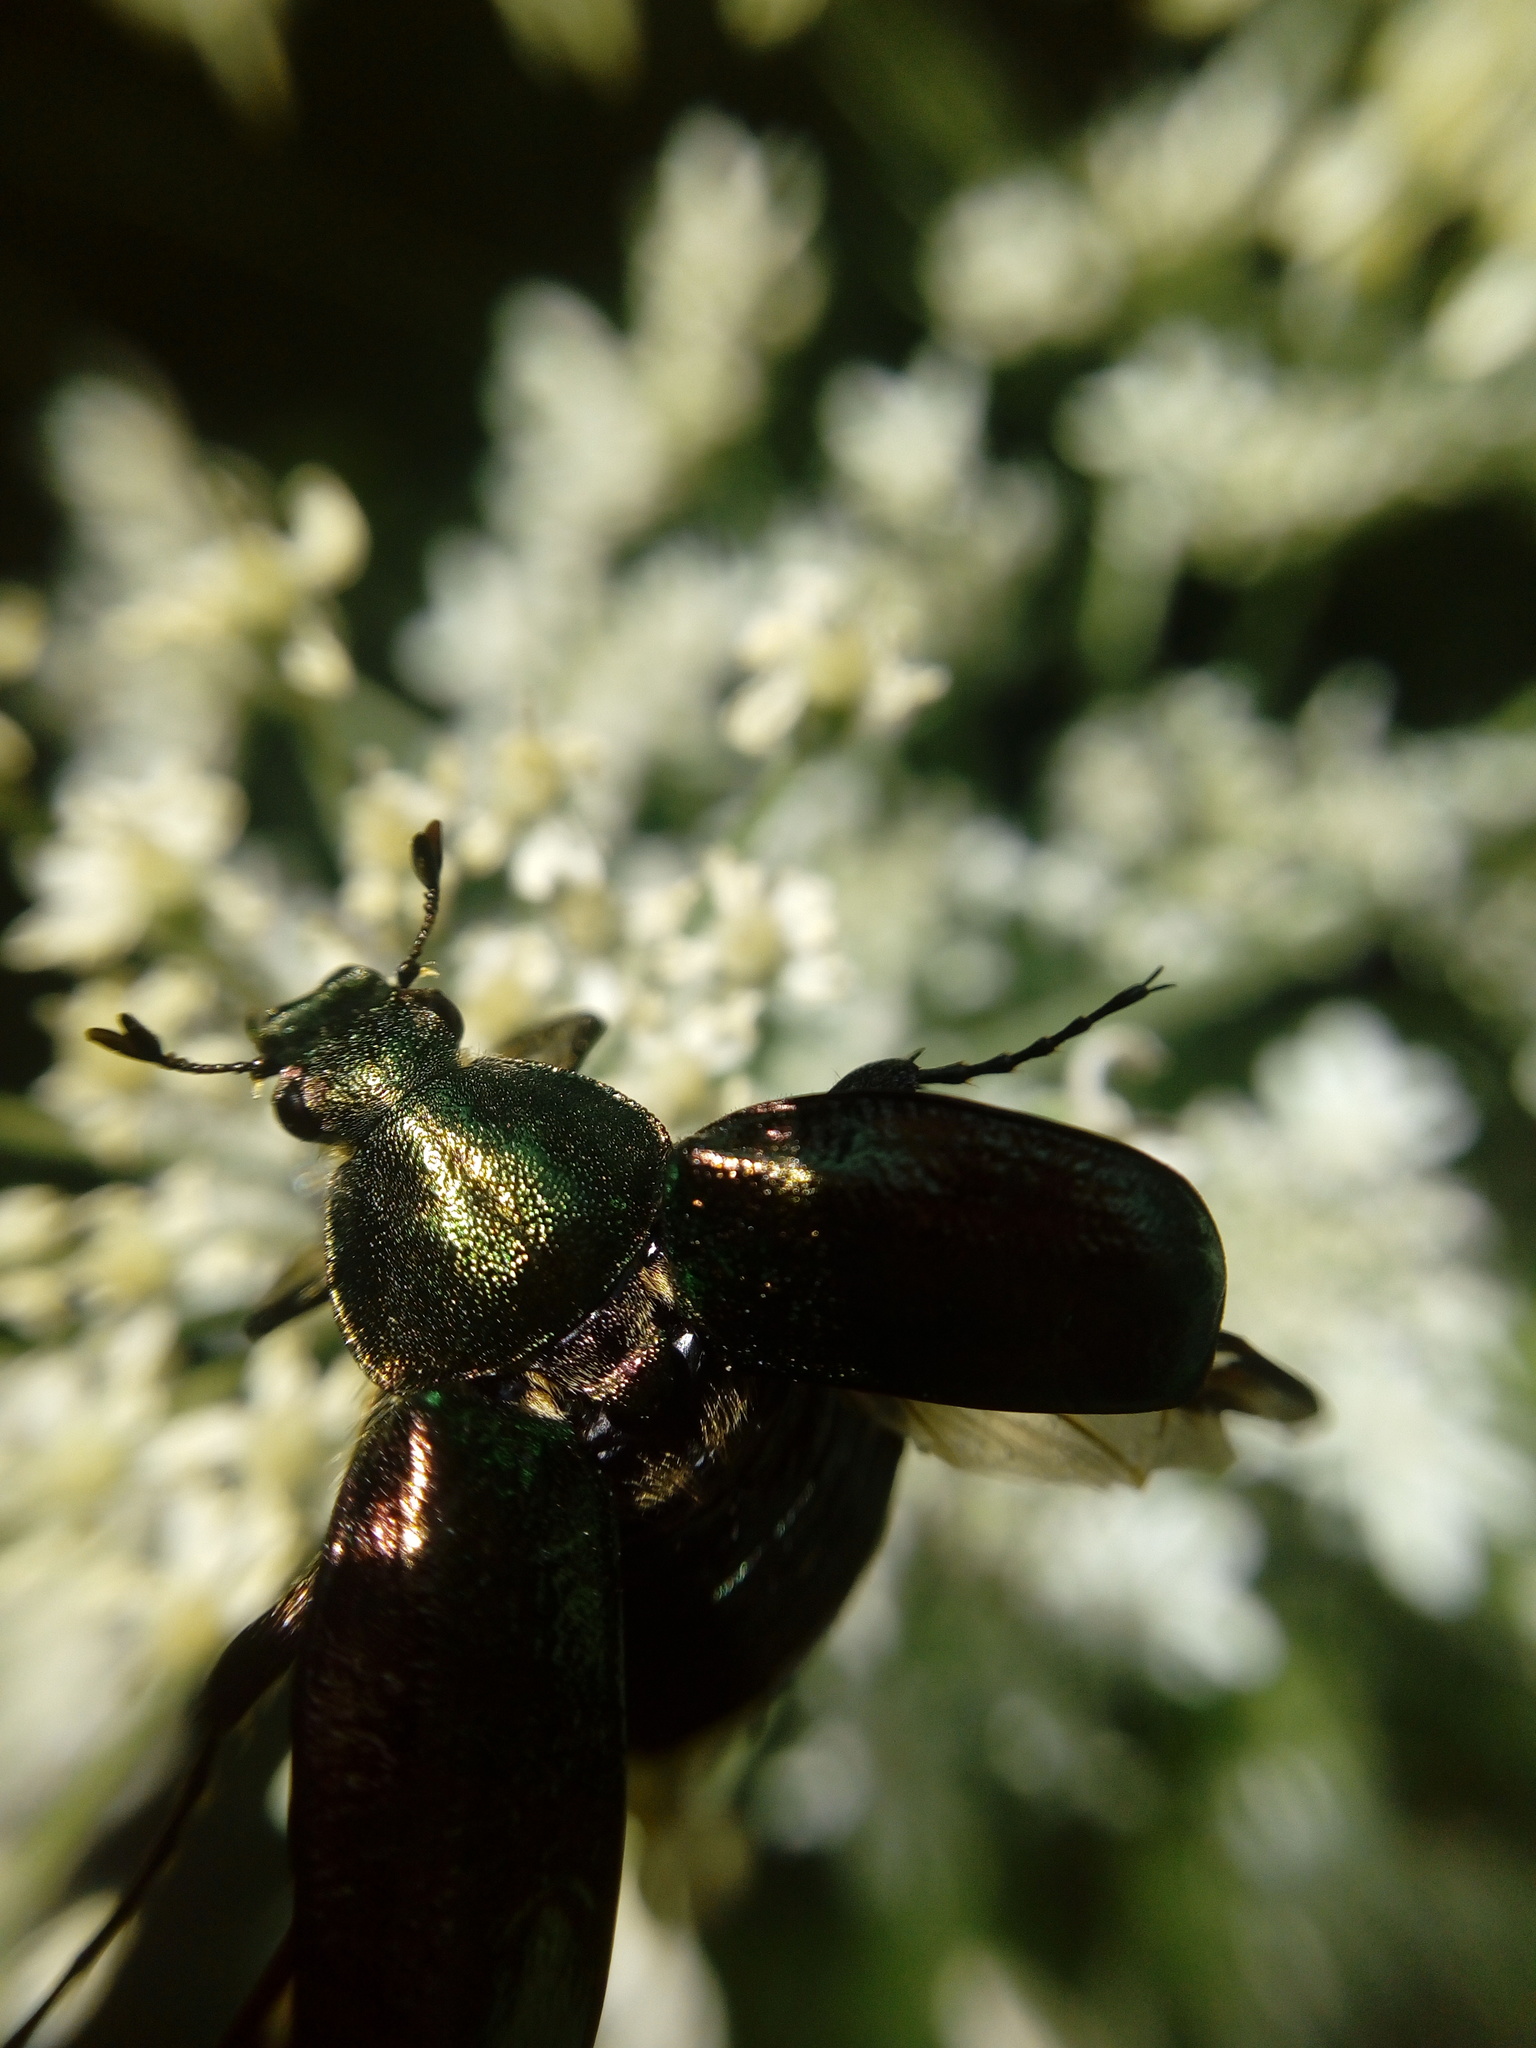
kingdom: Animalia
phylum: Arthropoda
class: Insecta
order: Coleoptera
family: Scarabaeidae
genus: Gnorimus
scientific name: Gnorimus nobilis
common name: Noble chafer
